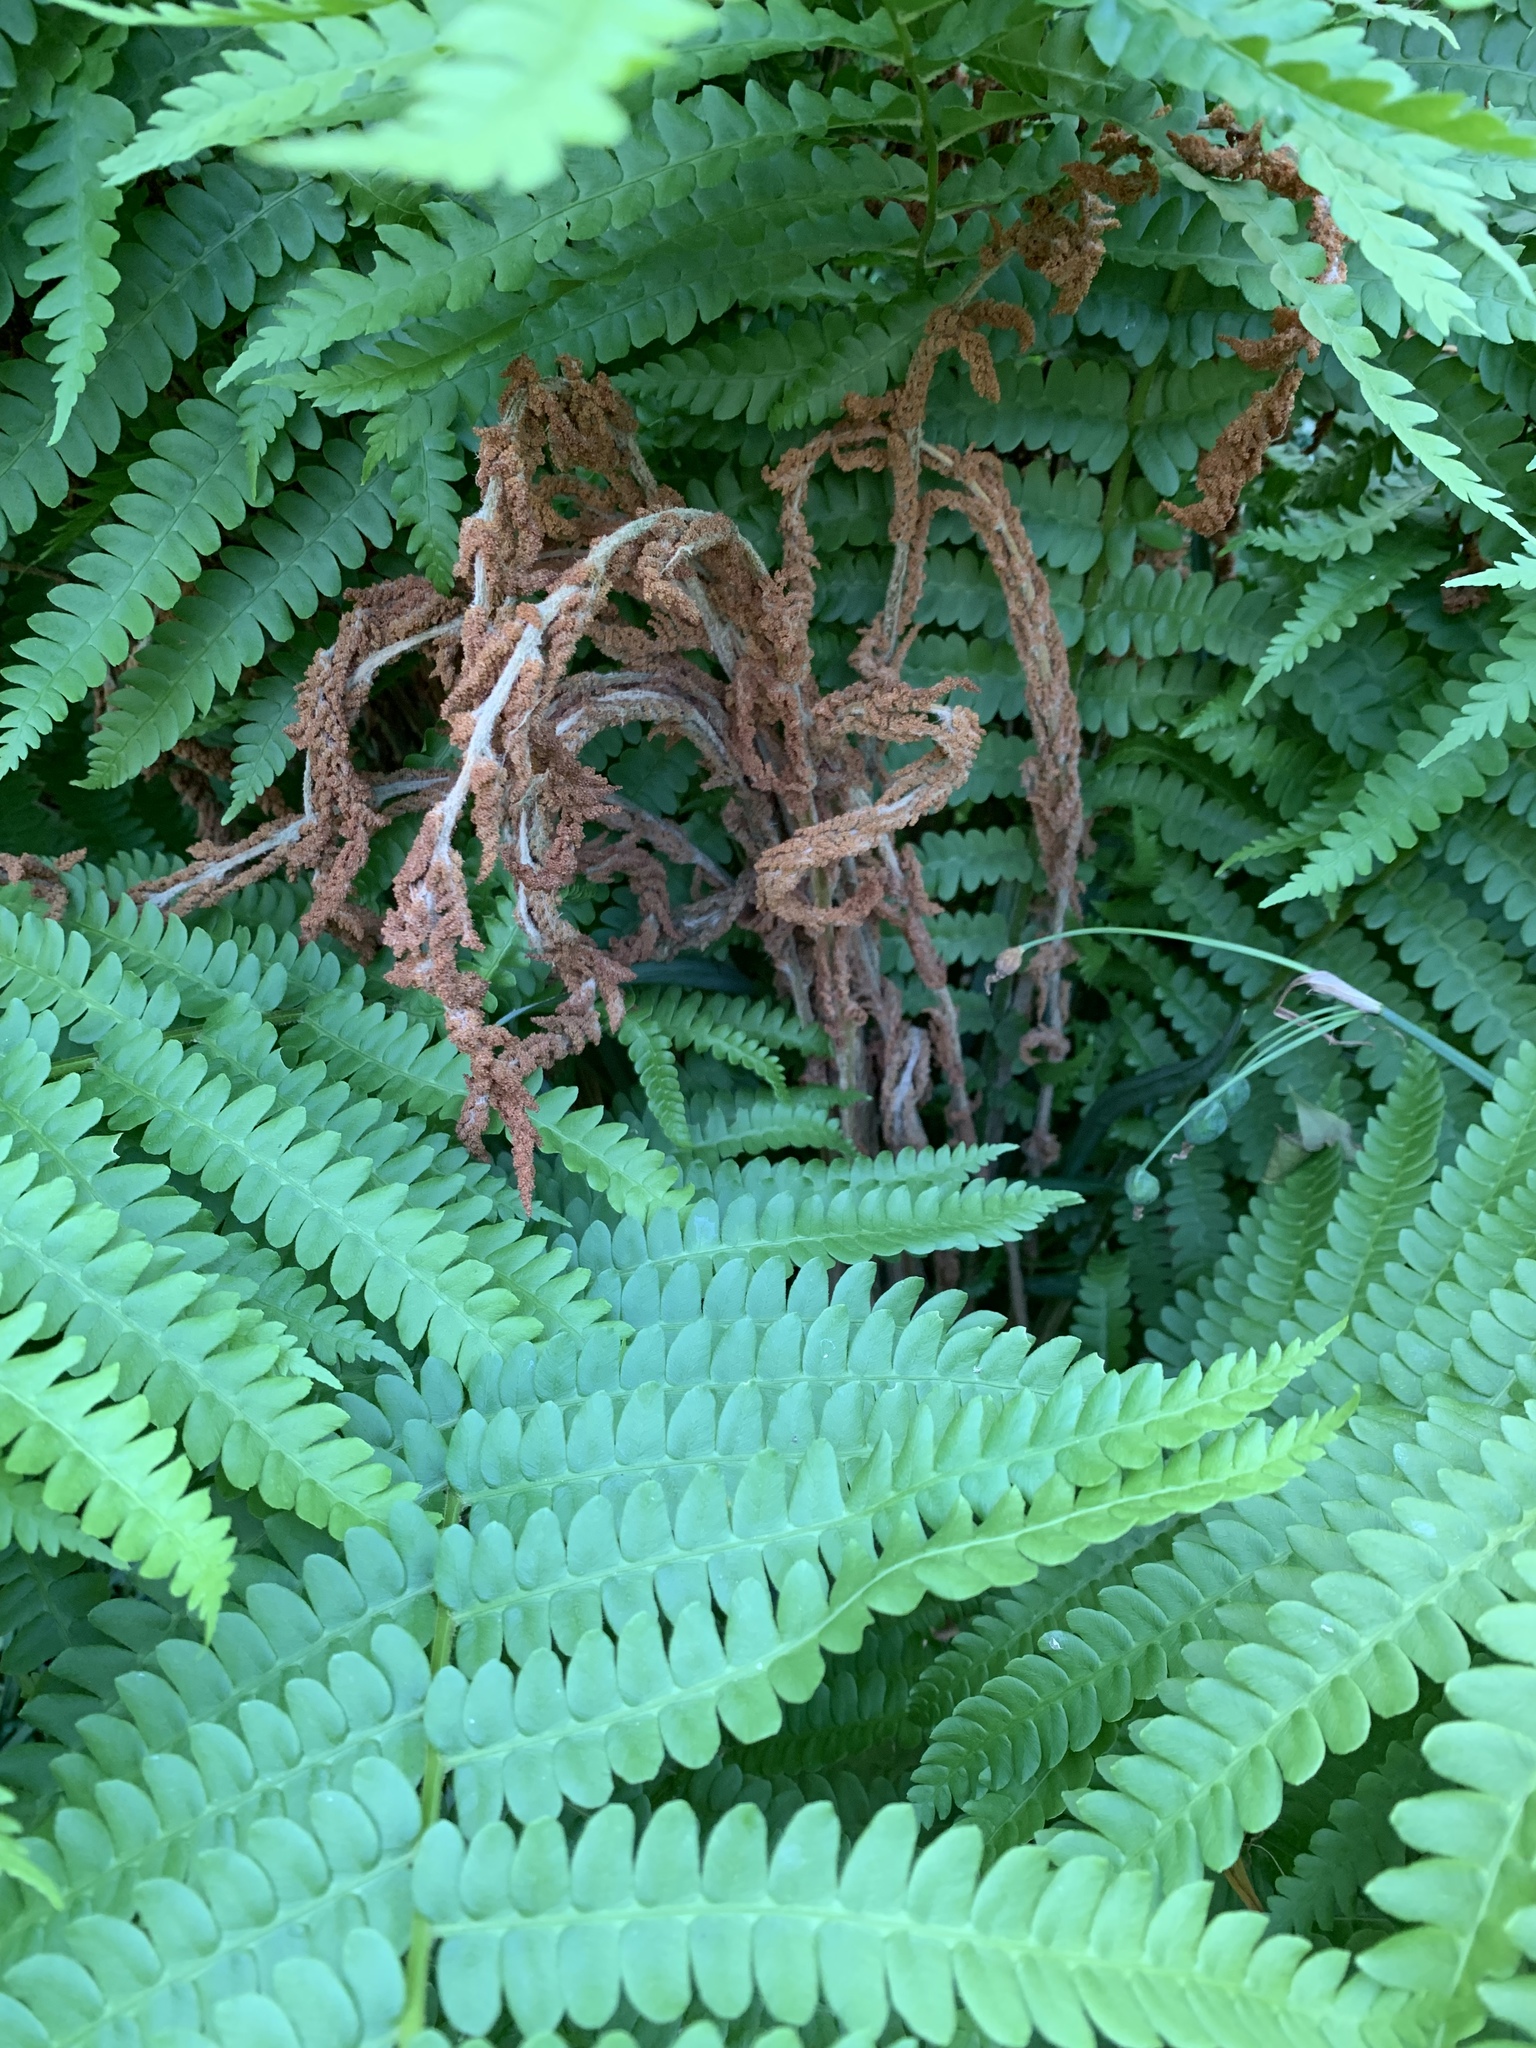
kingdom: Plantae
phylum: Tracheophyta
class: Polypodiopsida
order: Osmundales
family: Osmundaceae
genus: Osmundastrum
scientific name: Osmundastrum cinnamomeum
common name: Cinnamon fern
